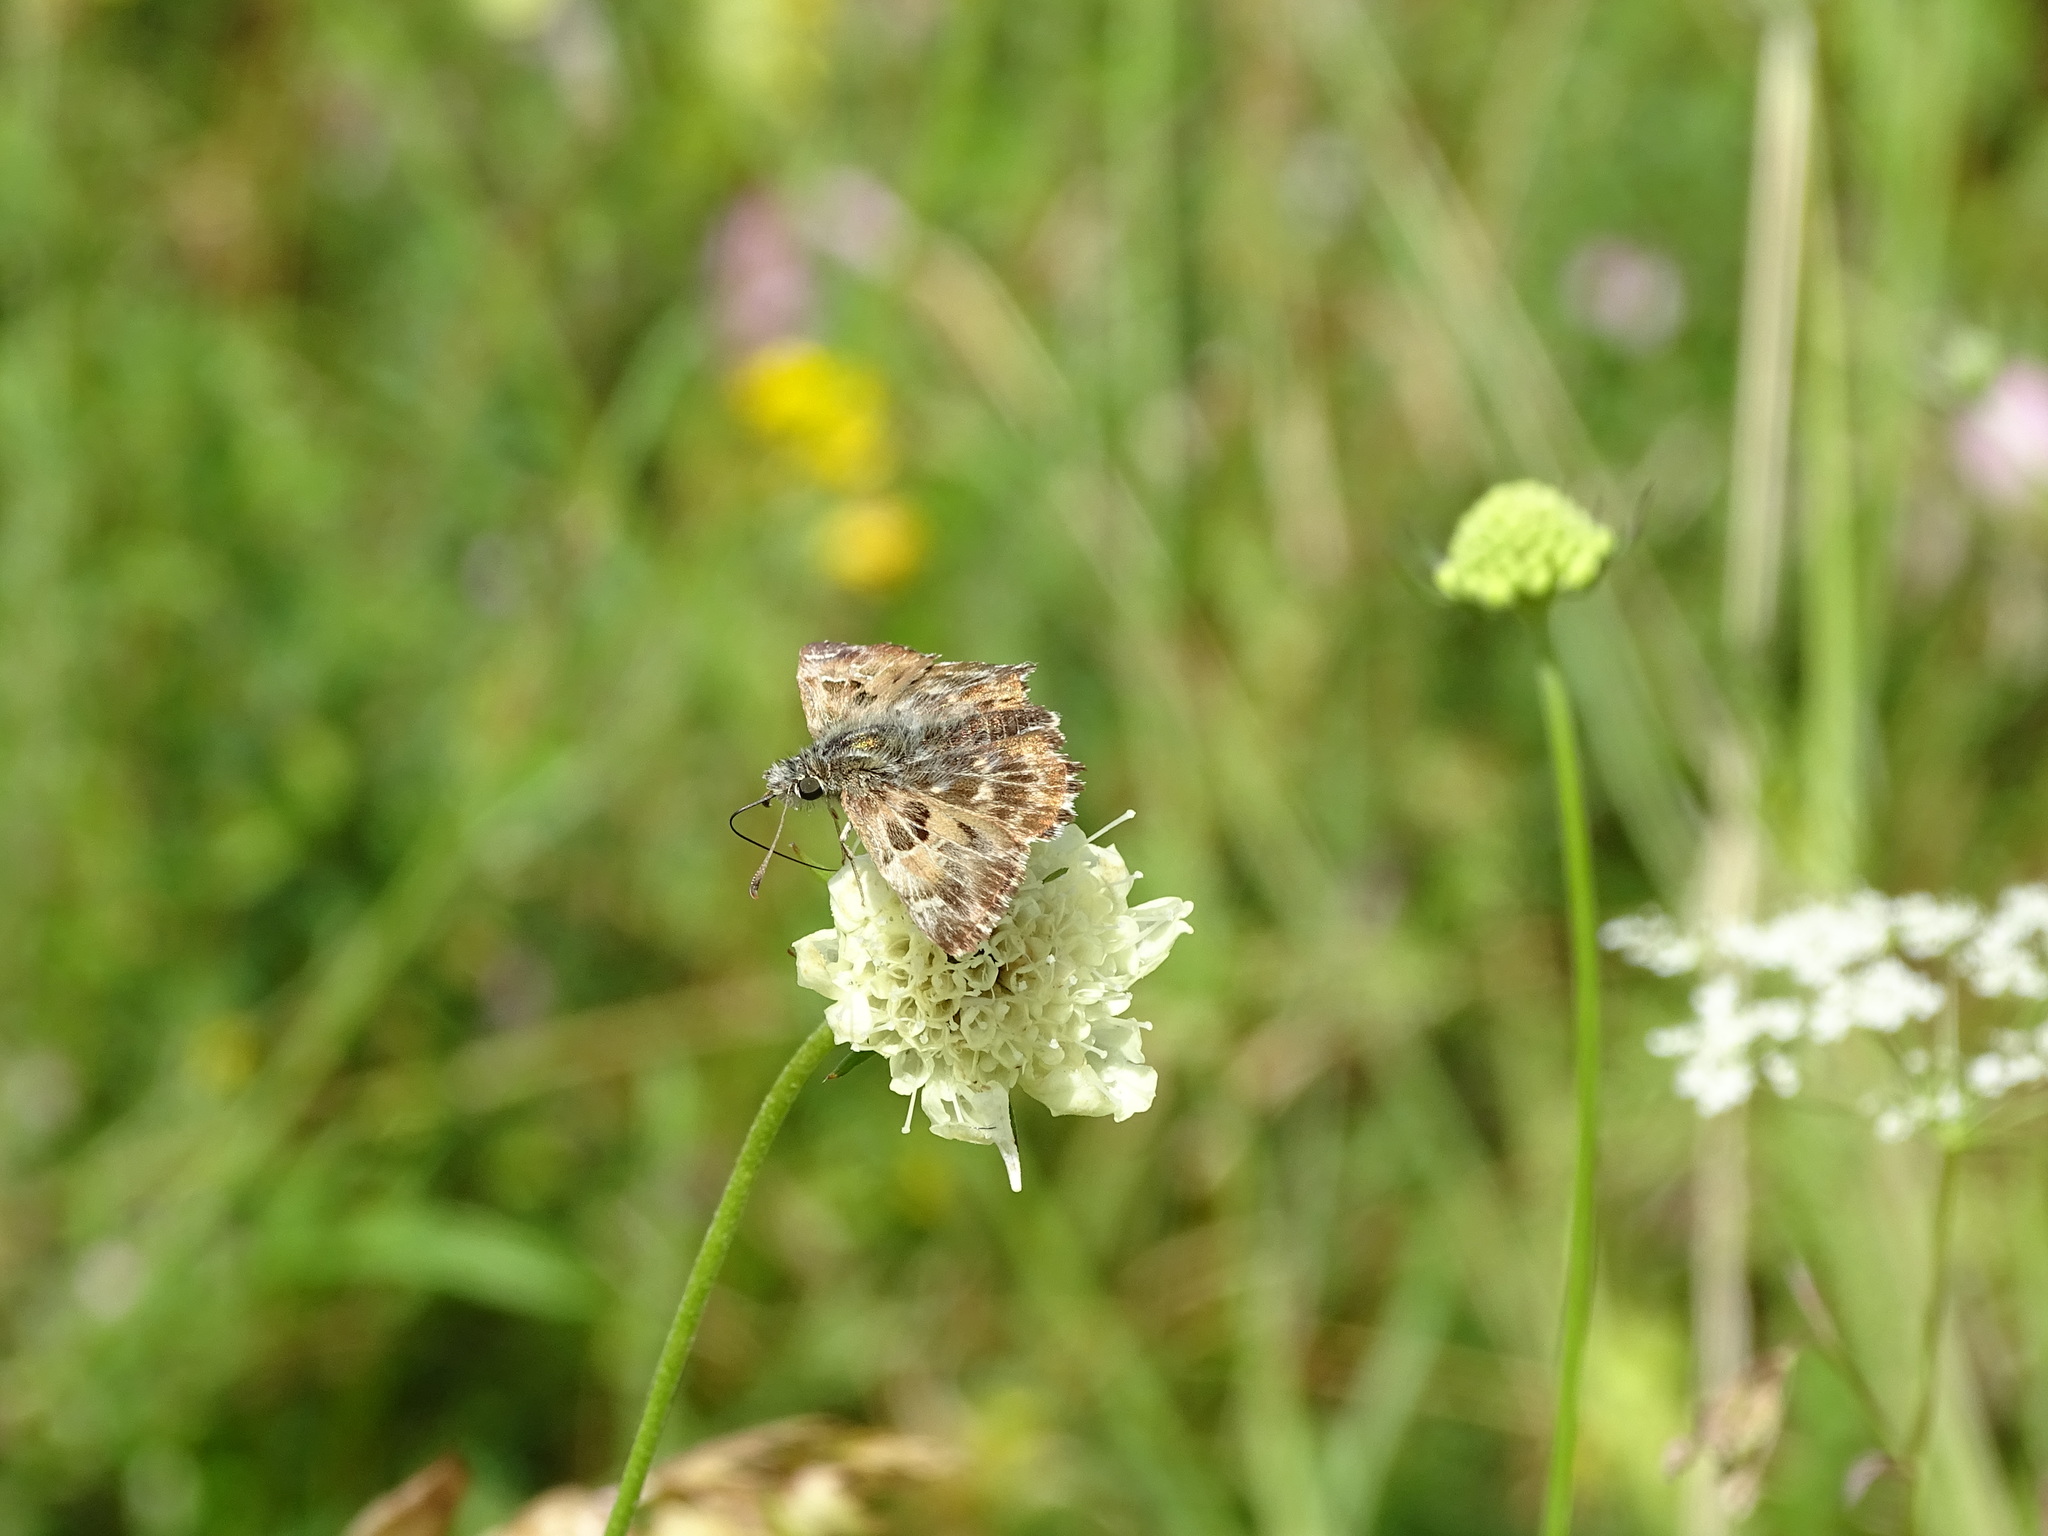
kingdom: Animalia
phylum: Arthropoda
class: Insecta
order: Lepidoptera
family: Hesperiidae
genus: Carcharodus
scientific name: Carcharodus alceae
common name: Mallow skipper
